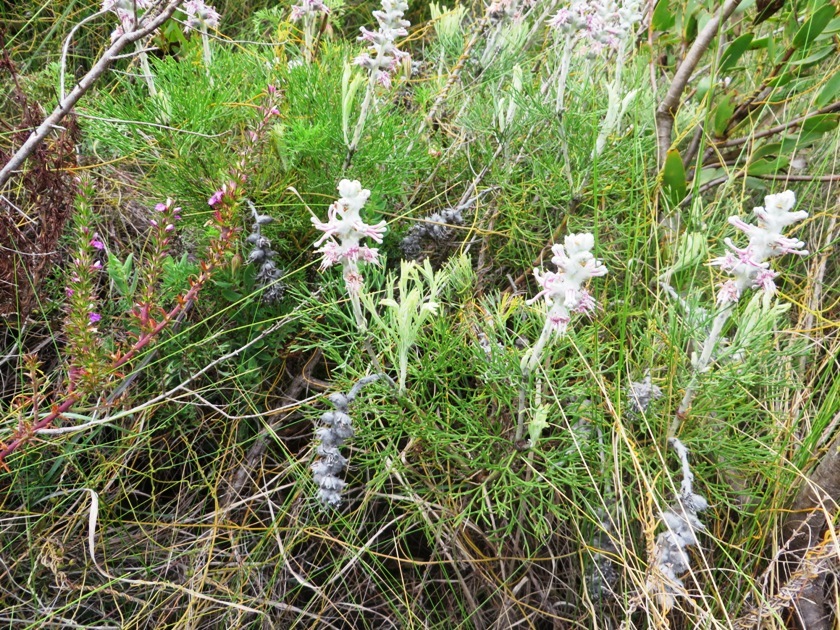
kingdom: Plantae
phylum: Tracheophyta
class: Magnoliopsida
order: Proteales
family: Proteaceae
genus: Paranomus
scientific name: Paranomus spicatus
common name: Kogelberg sceptre
